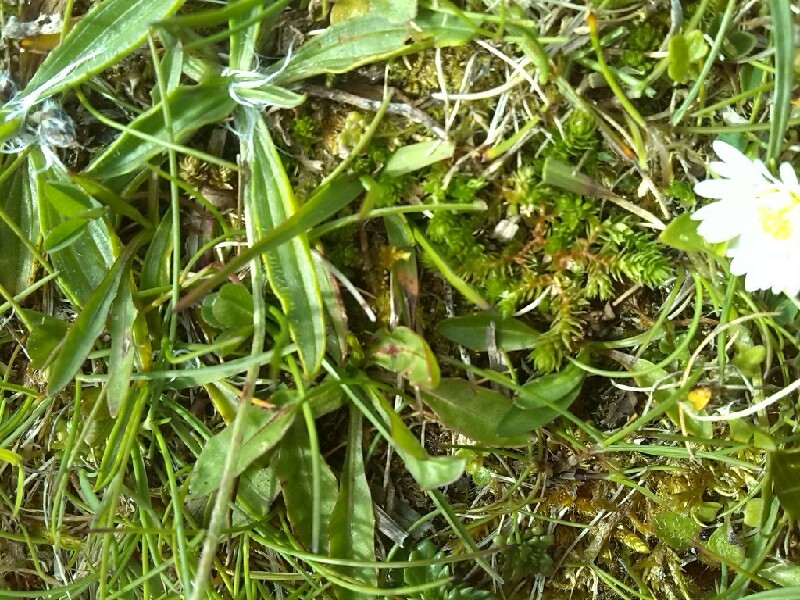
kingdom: Plantae
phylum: Tracheophyta
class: Lycopodiopsida
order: Selaginellales
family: Selaginellaceae
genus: Selaginella
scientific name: Selaginella selaginoides
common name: Prickly mountain-moss
